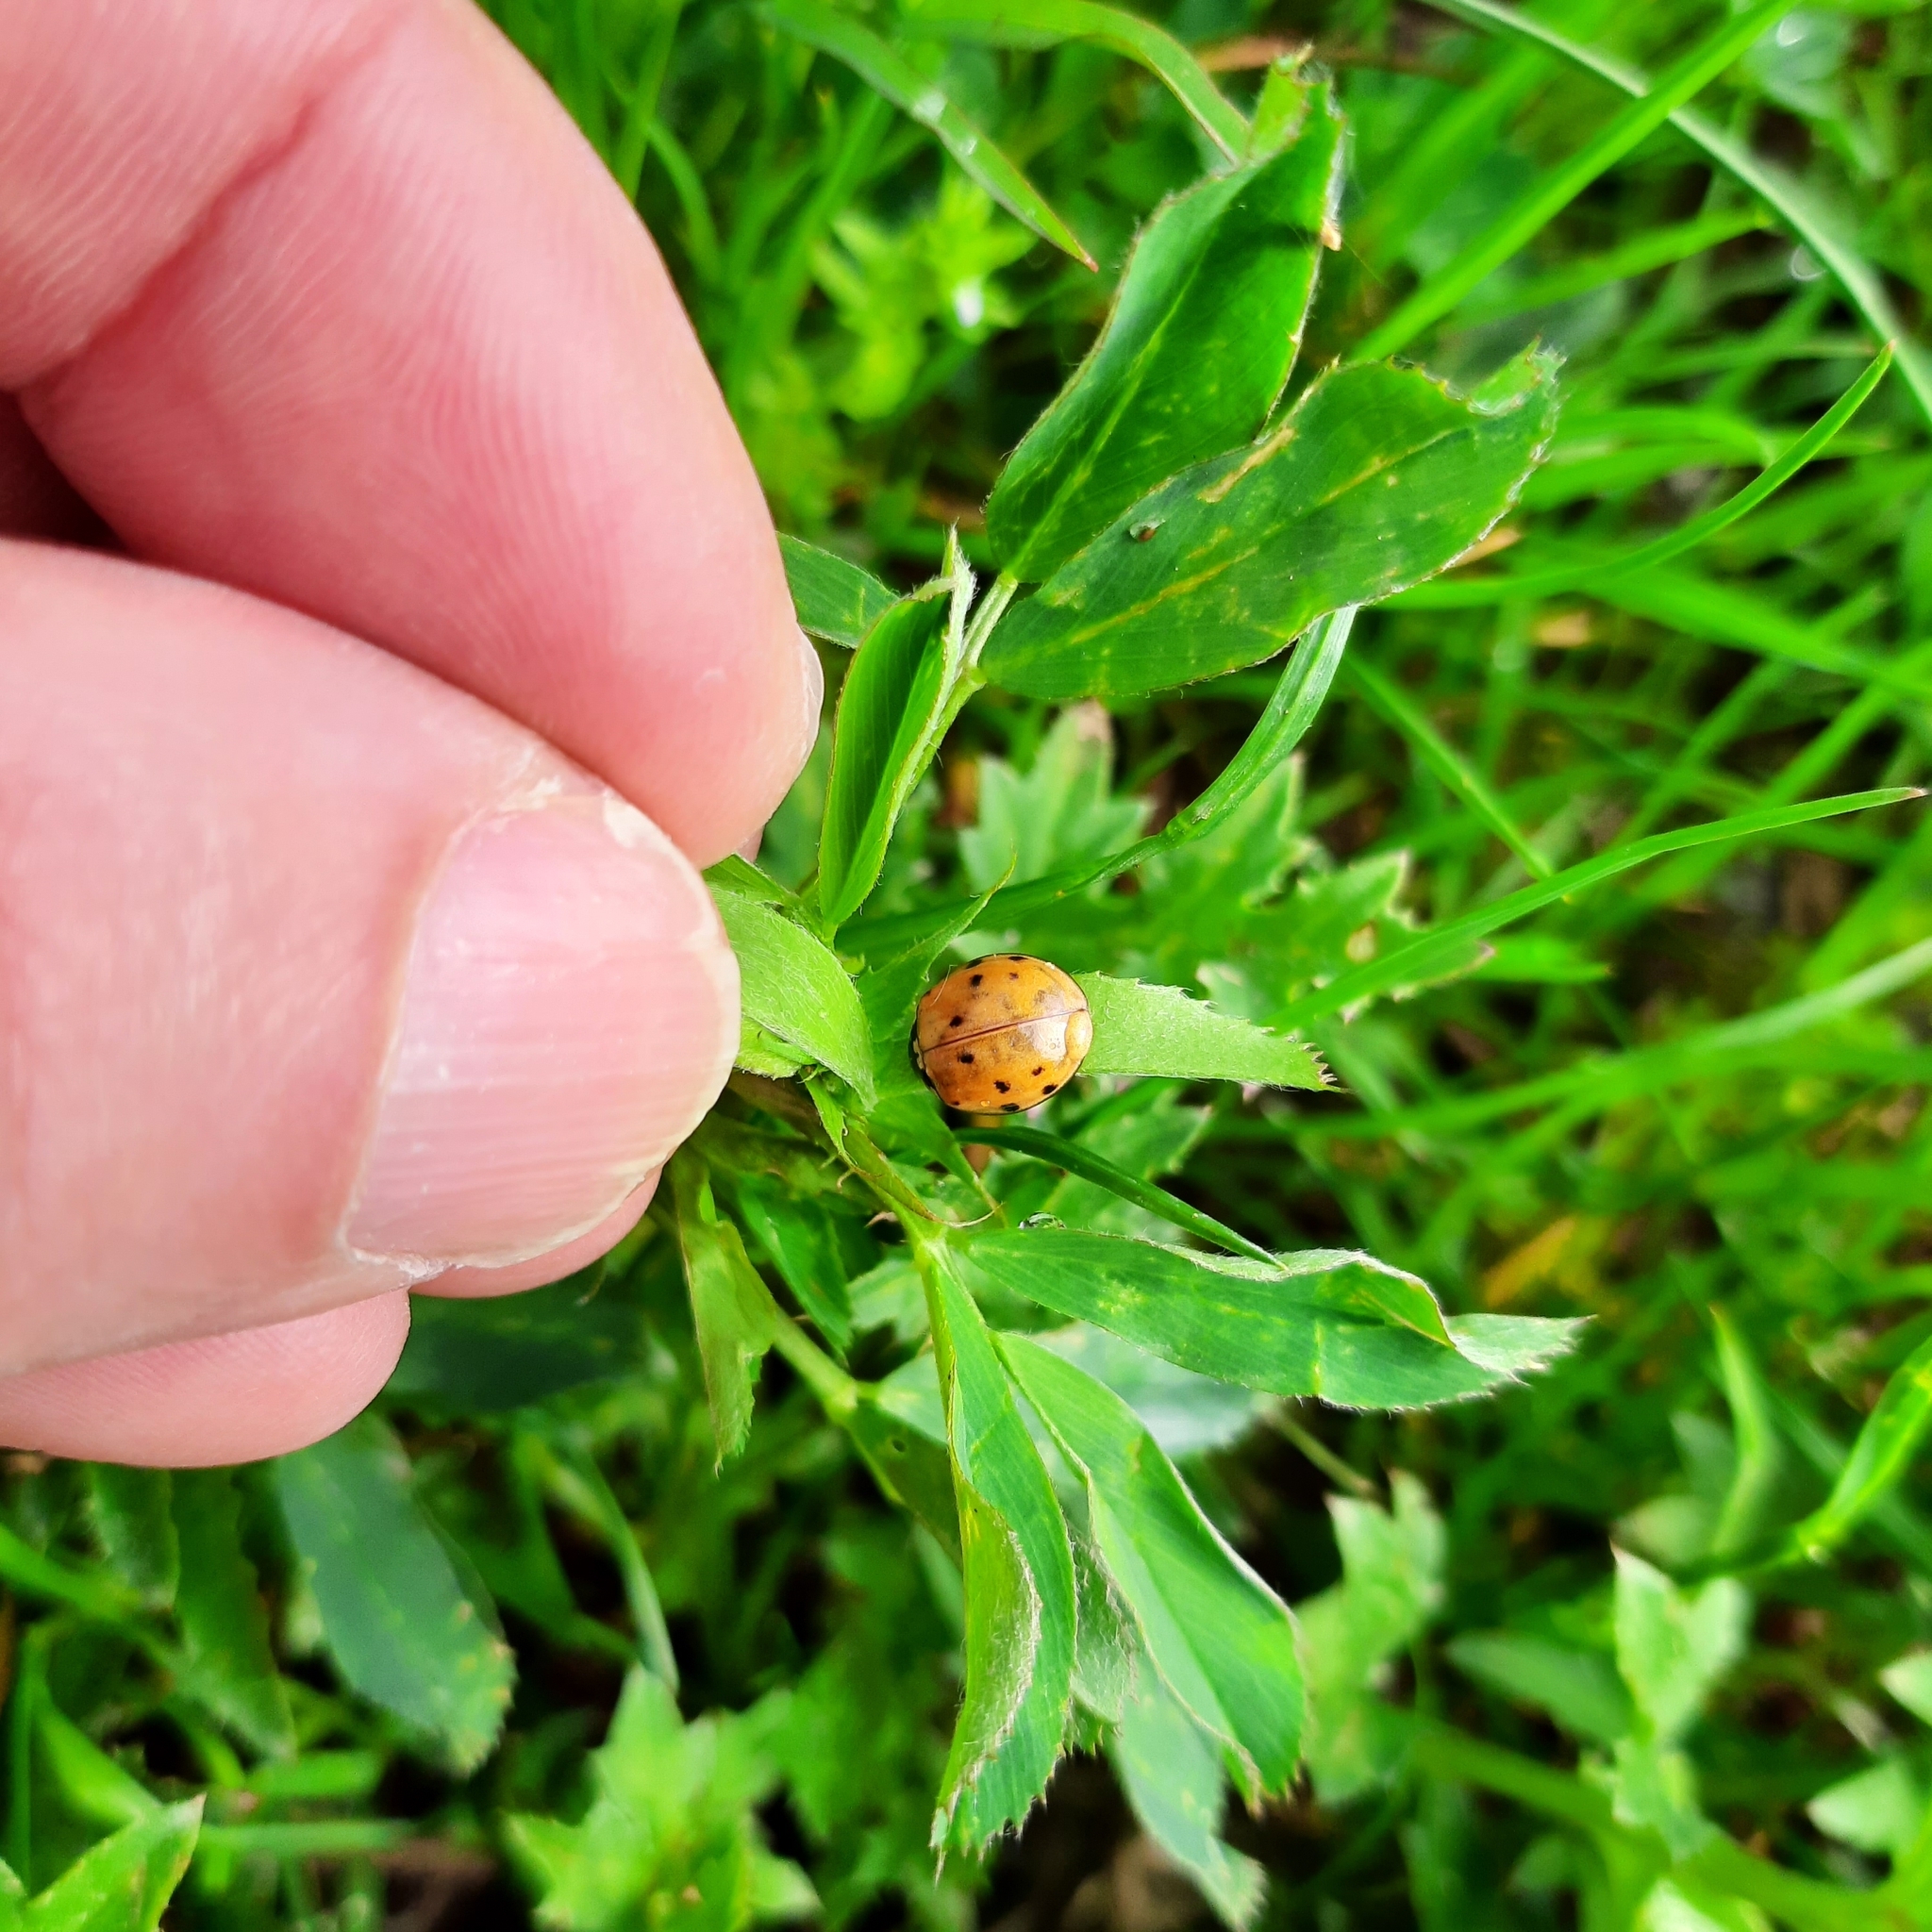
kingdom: Animalia
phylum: Arthropoda
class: Insecta
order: Coleoptera
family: Coccinellidae
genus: Harmonia
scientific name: Harmonia axyridis
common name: Harlequin ladybird
